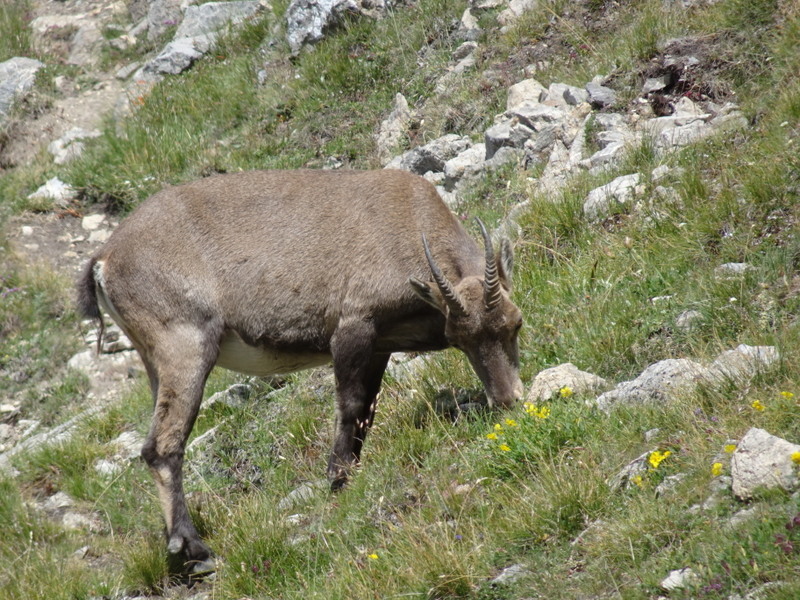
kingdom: Animalia
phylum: Chordata
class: Mammalia
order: Artiodactyla
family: Bovidae
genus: Capra
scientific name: Capra ibex
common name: Alpine ibex
